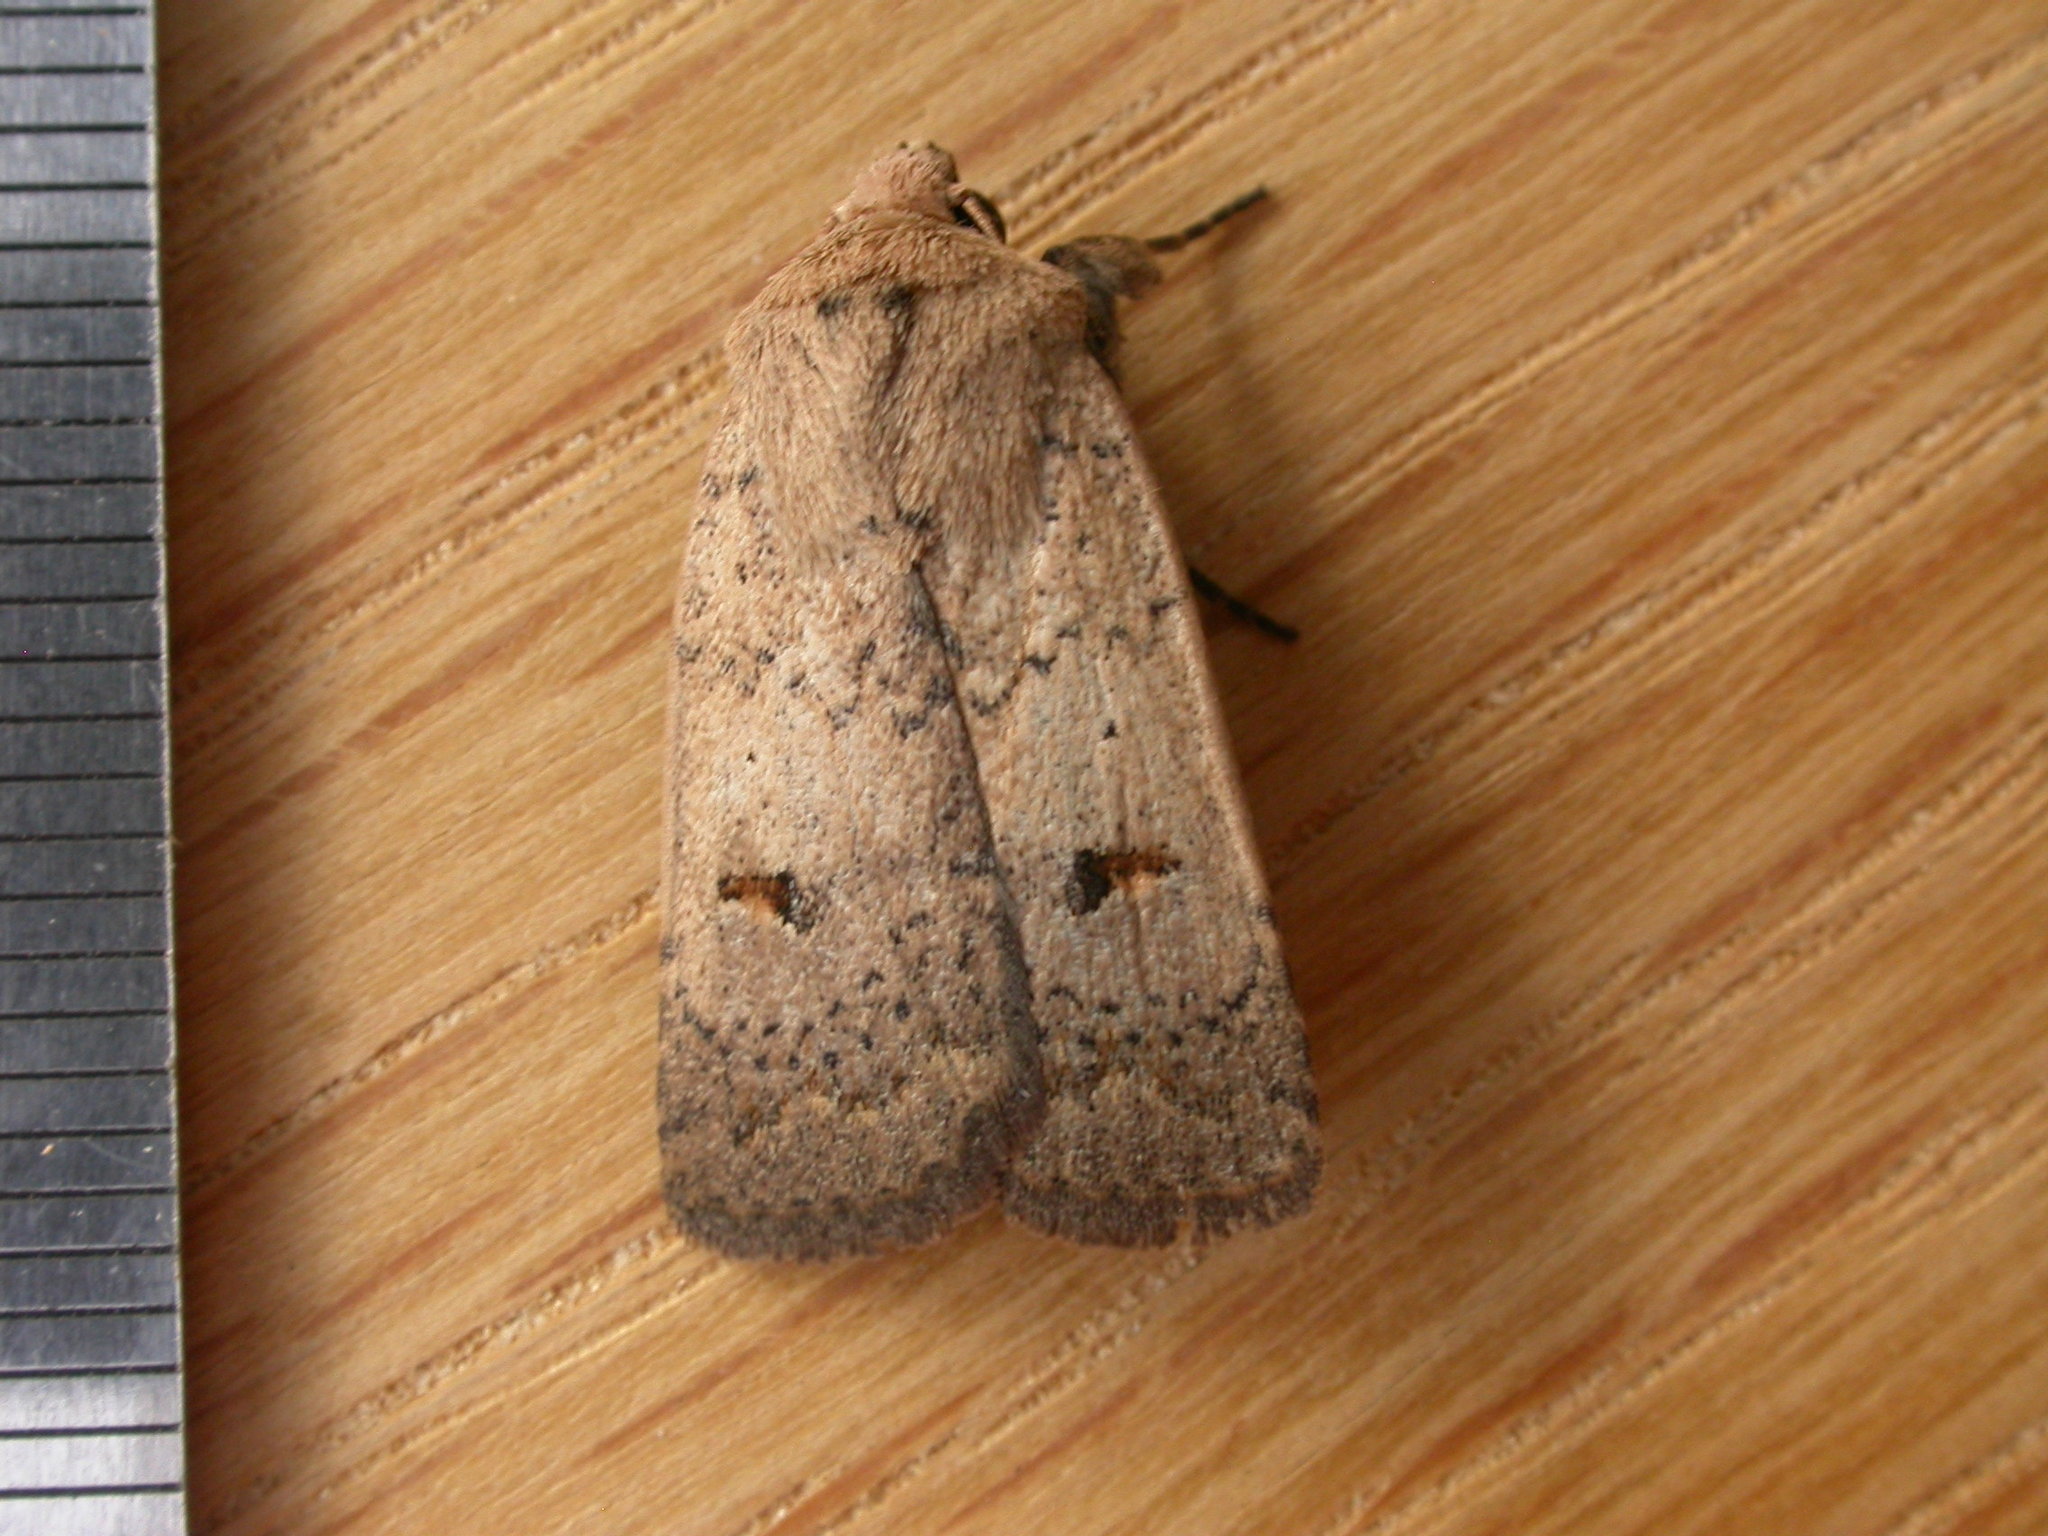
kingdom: Animalia
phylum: Arthropoda
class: Insecta
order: Lepidoptera
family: Noctuidae
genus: Proteuxoa
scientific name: Proteuxoa hypochalchis
